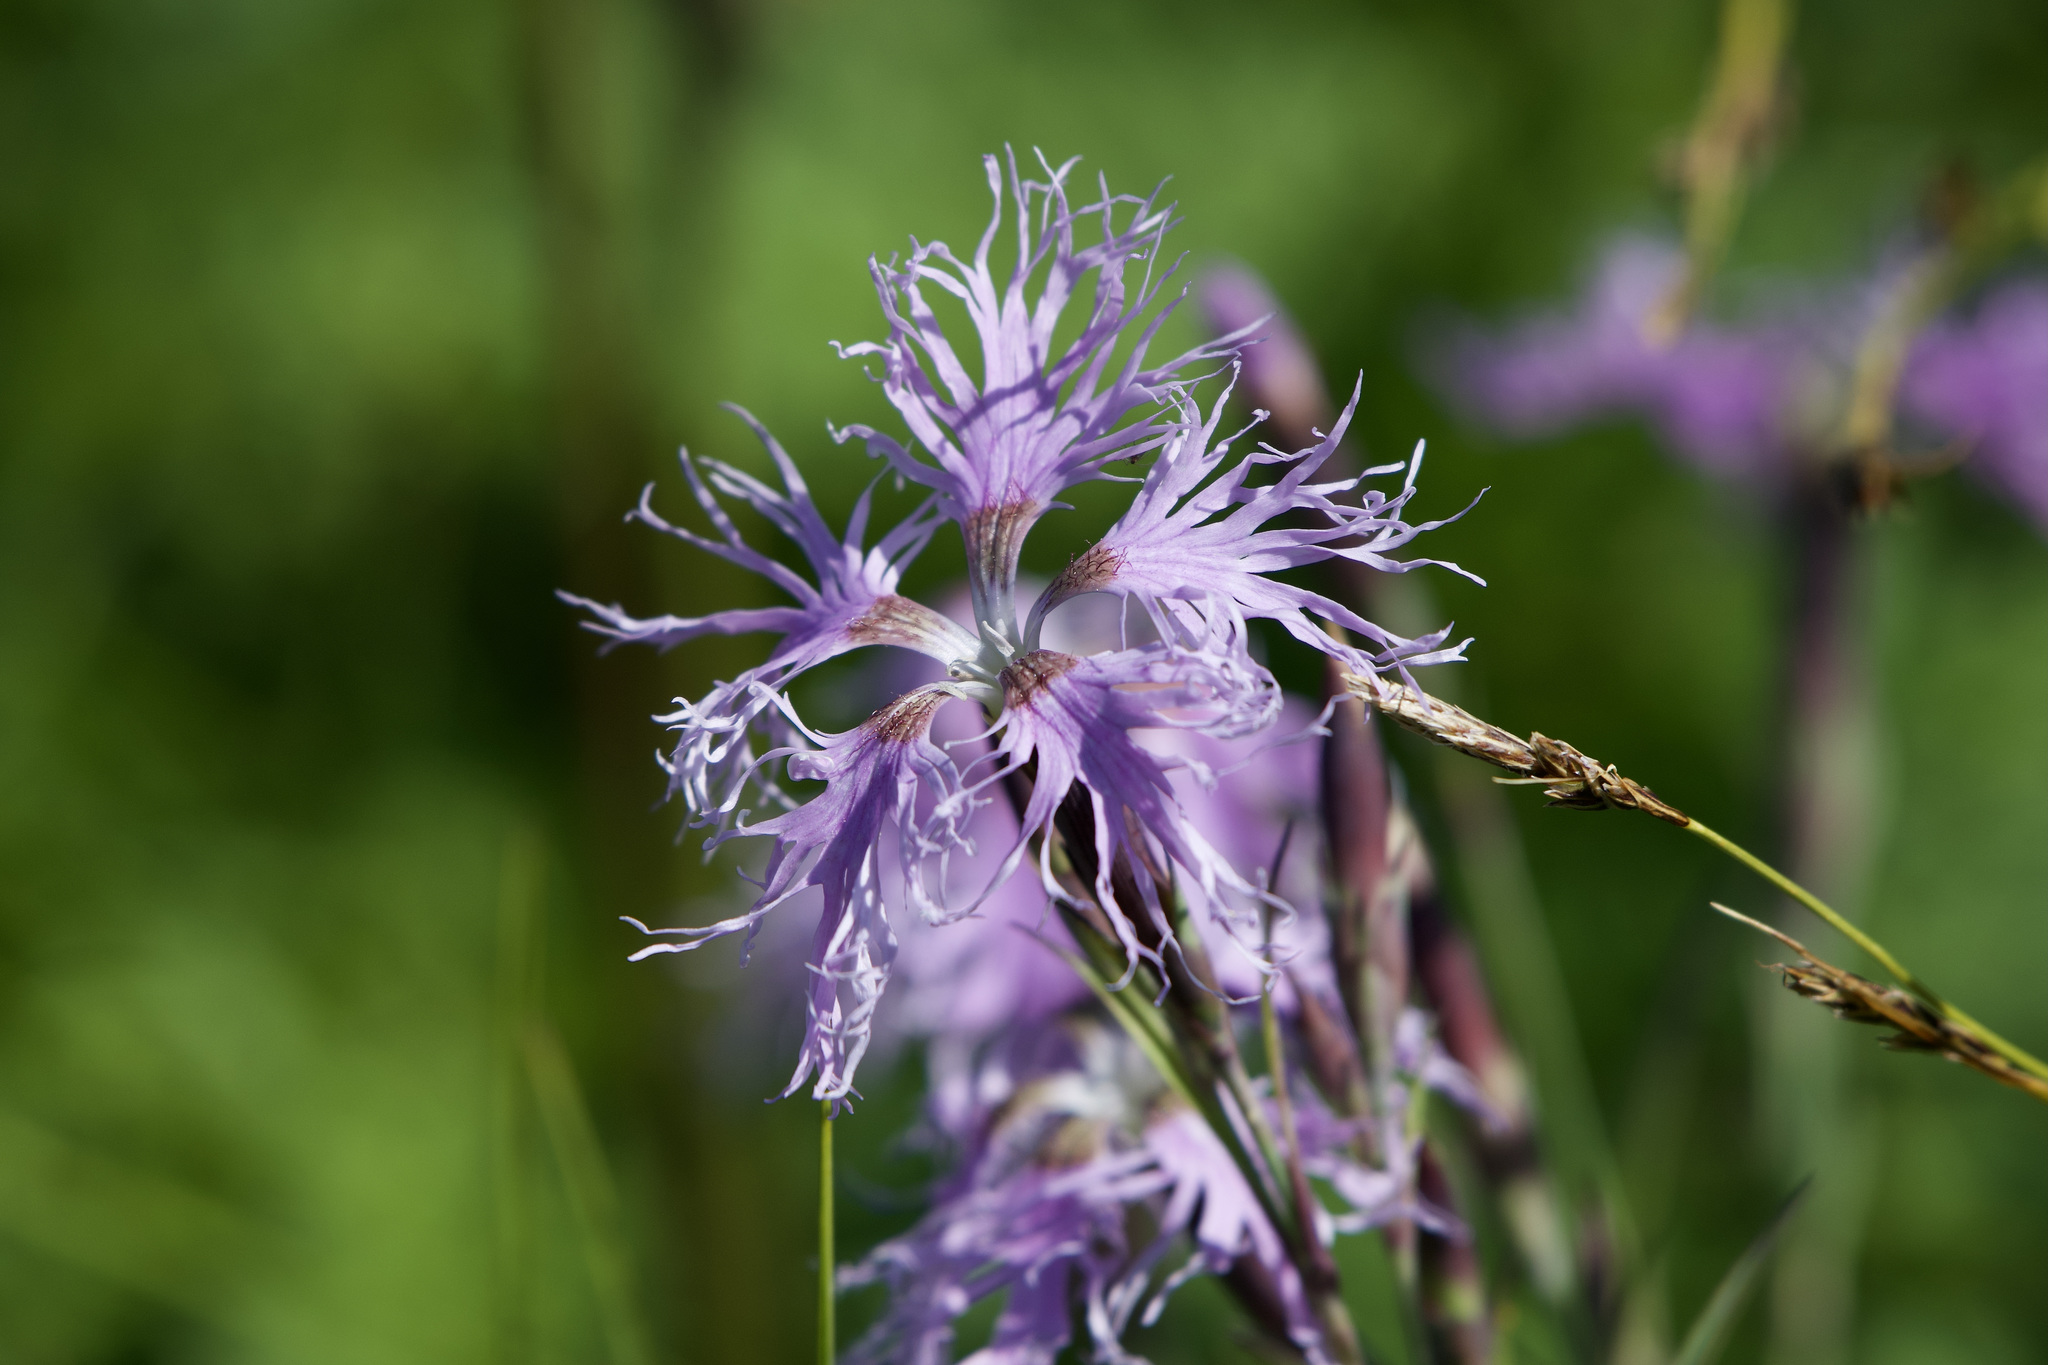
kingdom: Plantae
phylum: Tracheophyta
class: Magnoliopsida
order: Caryophyllales
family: Caryophyllaceae
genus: Dianthus
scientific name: Dianthus superbus
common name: Fringed pink
